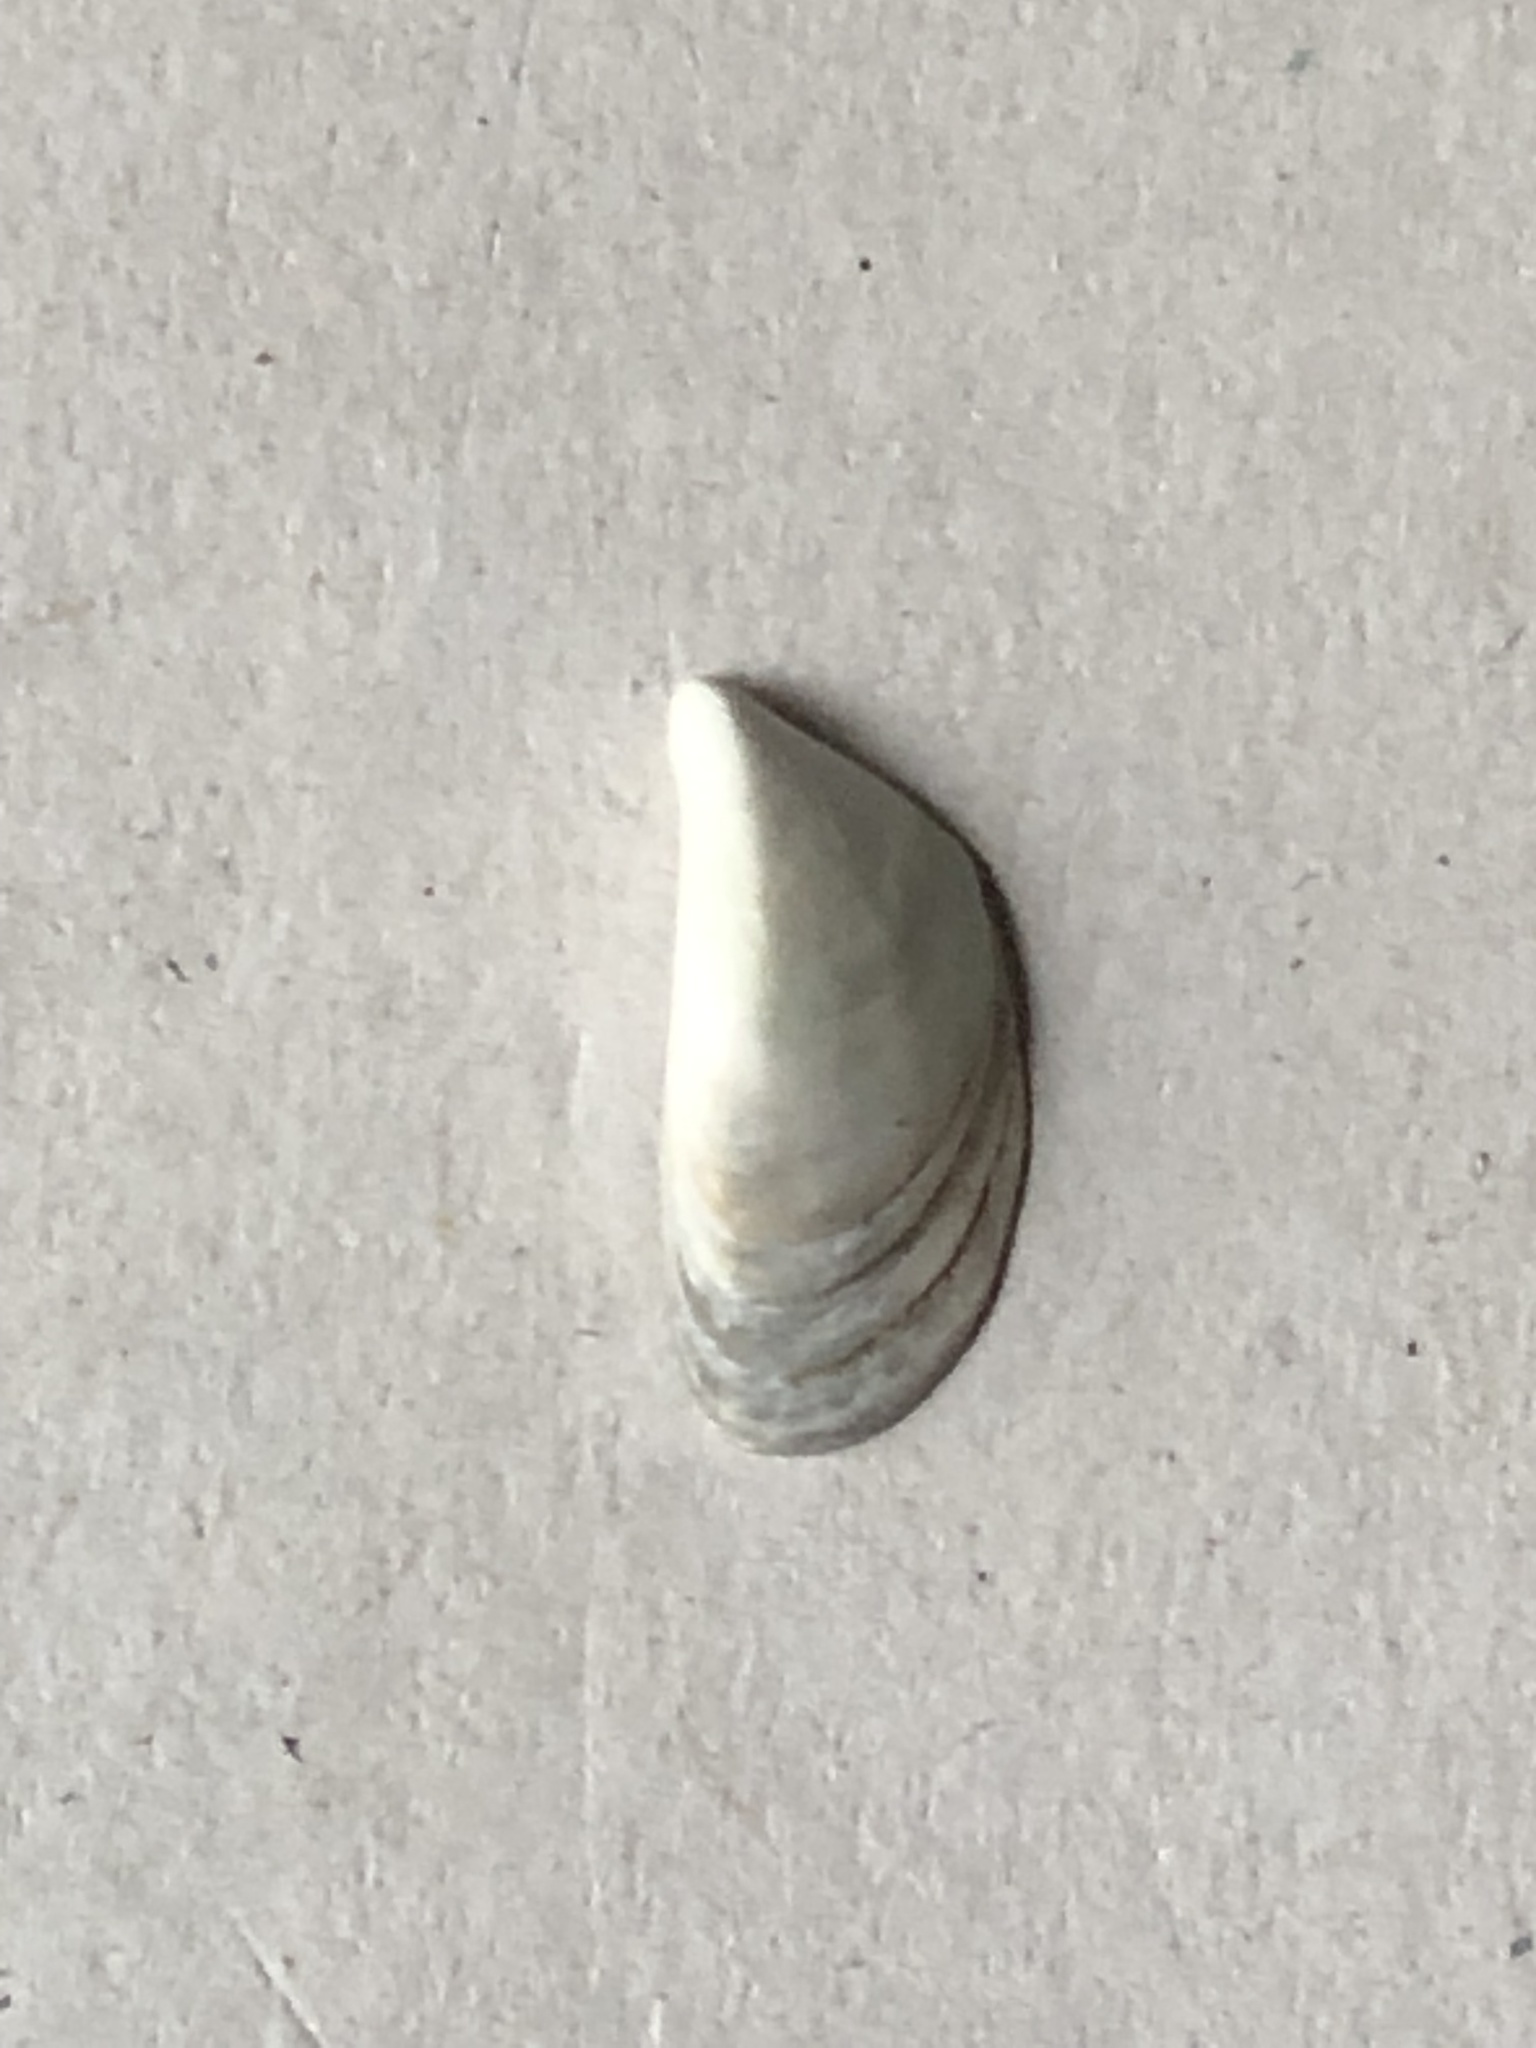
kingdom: Animalia
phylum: Mollusca
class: Bivalvia
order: Myida
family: Dreissenidae
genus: Dreissena
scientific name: Dreissena polymorpha
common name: Zebra mussel
